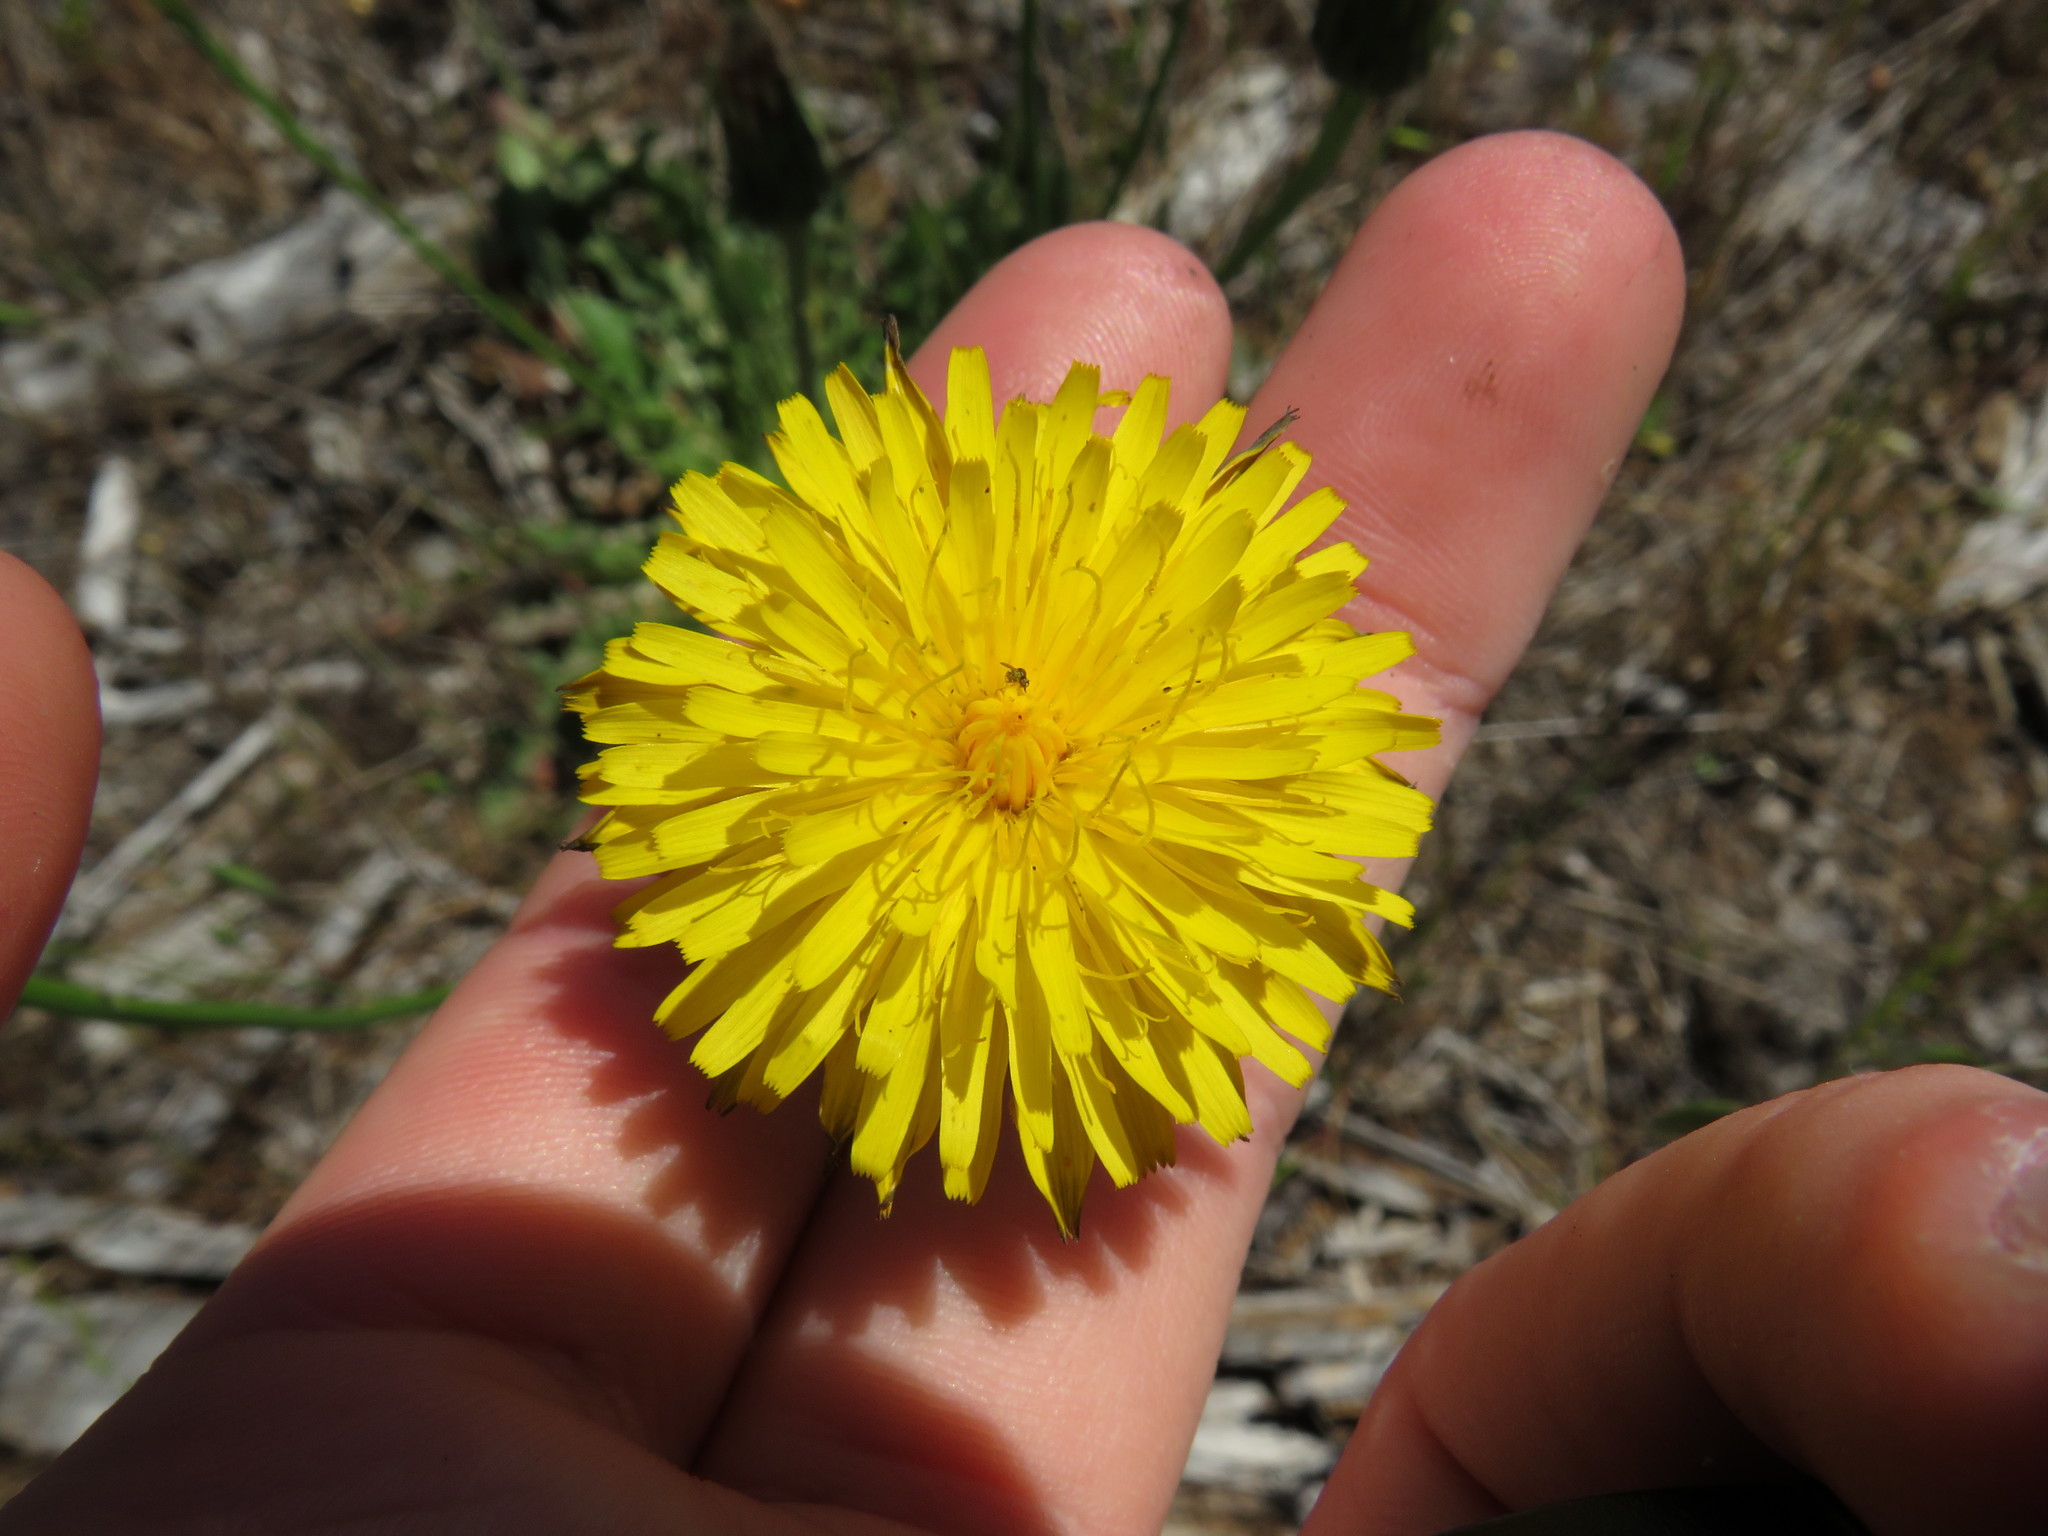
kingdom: Plantae
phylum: Tracheophyta
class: Magnoliopsida
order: Asterales
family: Asteraceae
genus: Hypochaeris
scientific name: Hypochaeris radicata
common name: Flatweed
